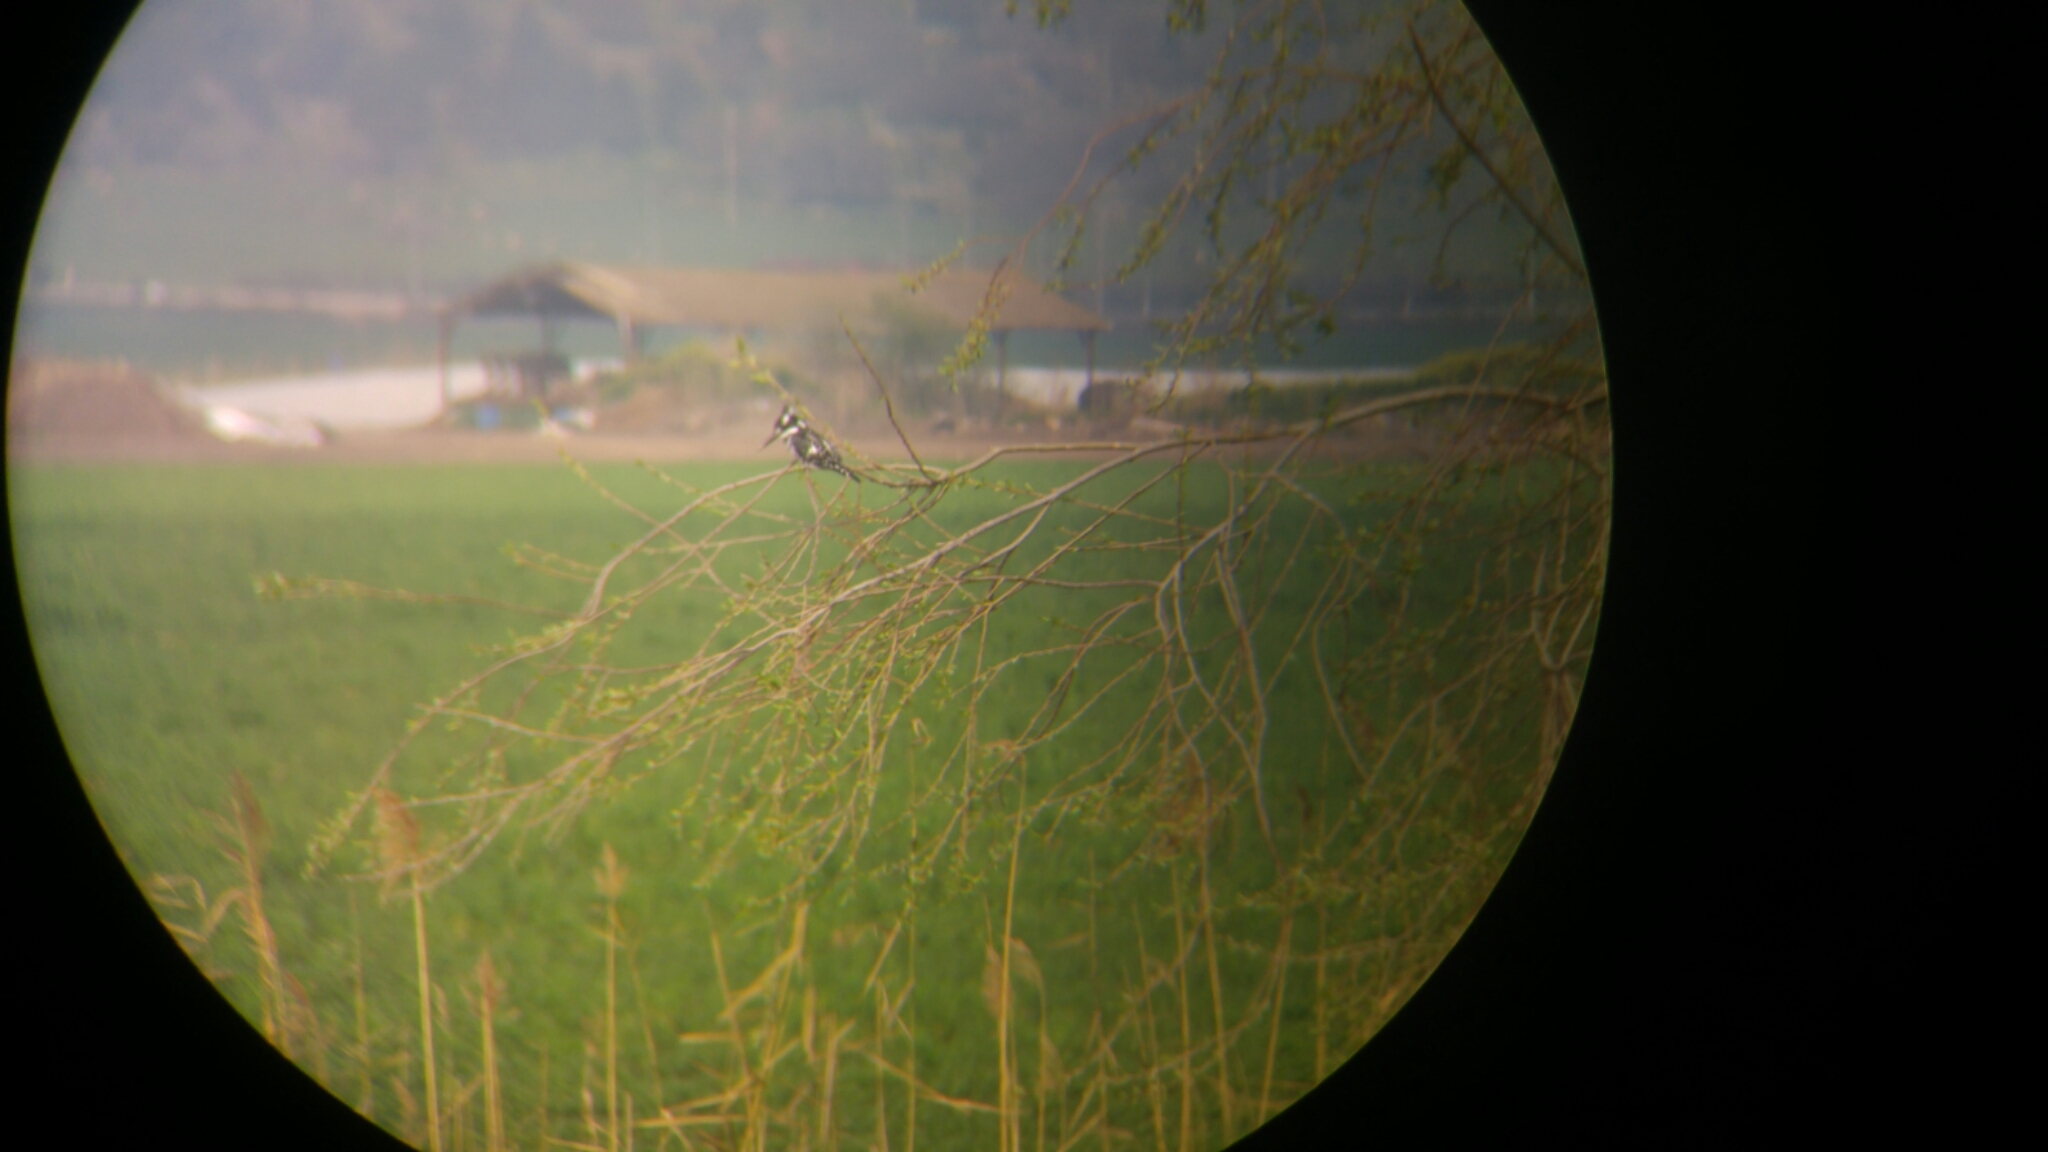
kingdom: Animalia
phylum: Chordata
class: Aves
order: Coraciiformes
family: Alcedinidae
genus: Ceryle
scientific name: Ceryle rudis
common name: Pied kingfisher
